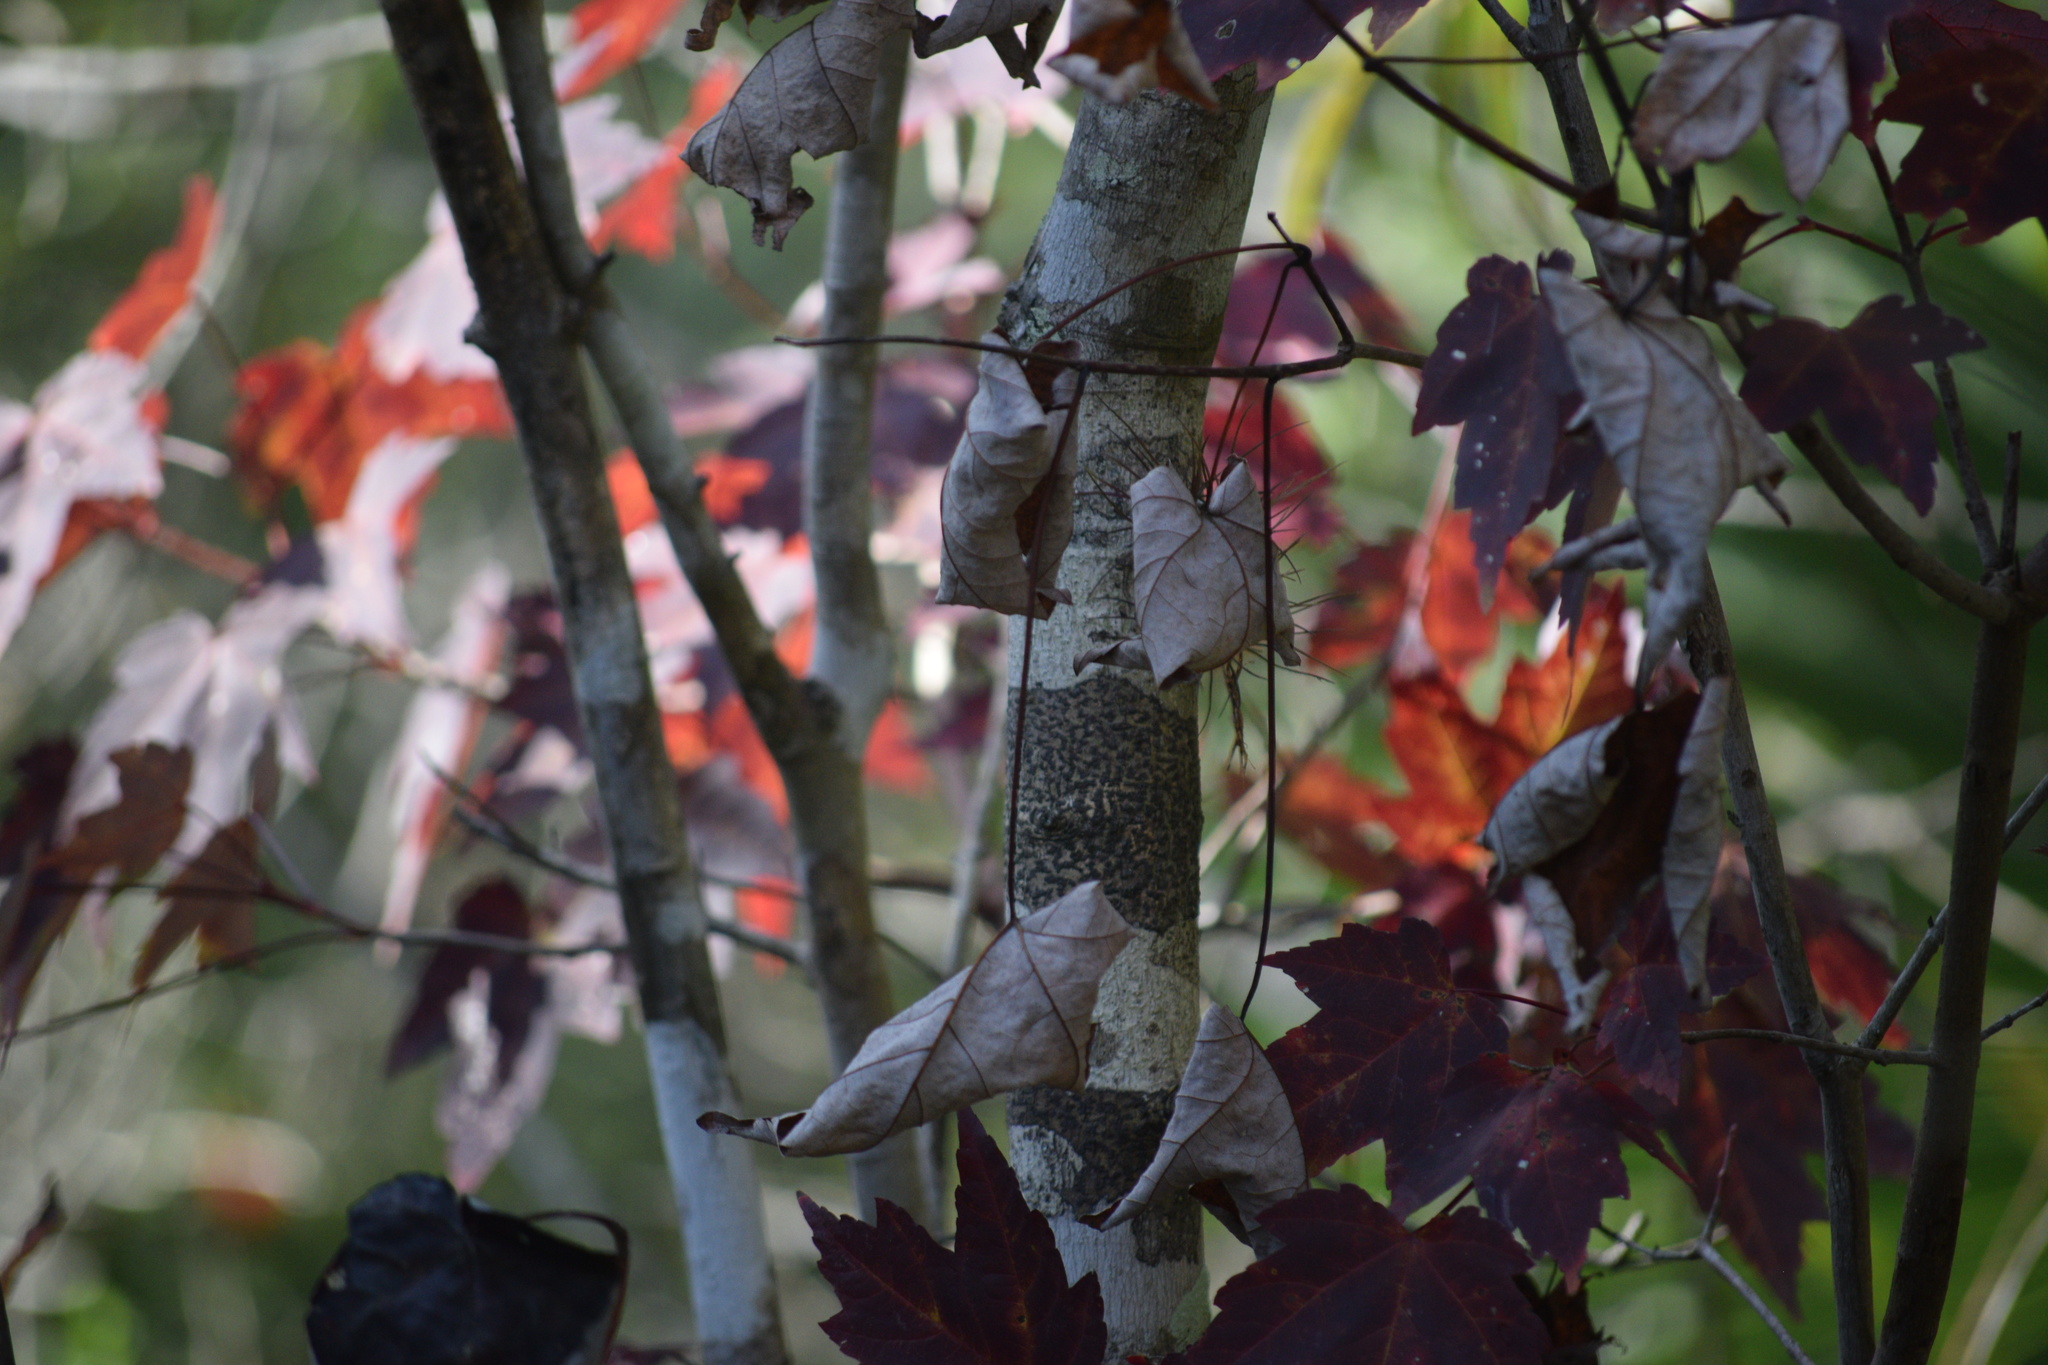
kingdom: Plantae
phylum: Tracheophyta
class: Magnoliopsida
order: Sapindales
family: Sapindaceae
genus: Acer
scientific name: Acer rubrum
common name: Red maple
